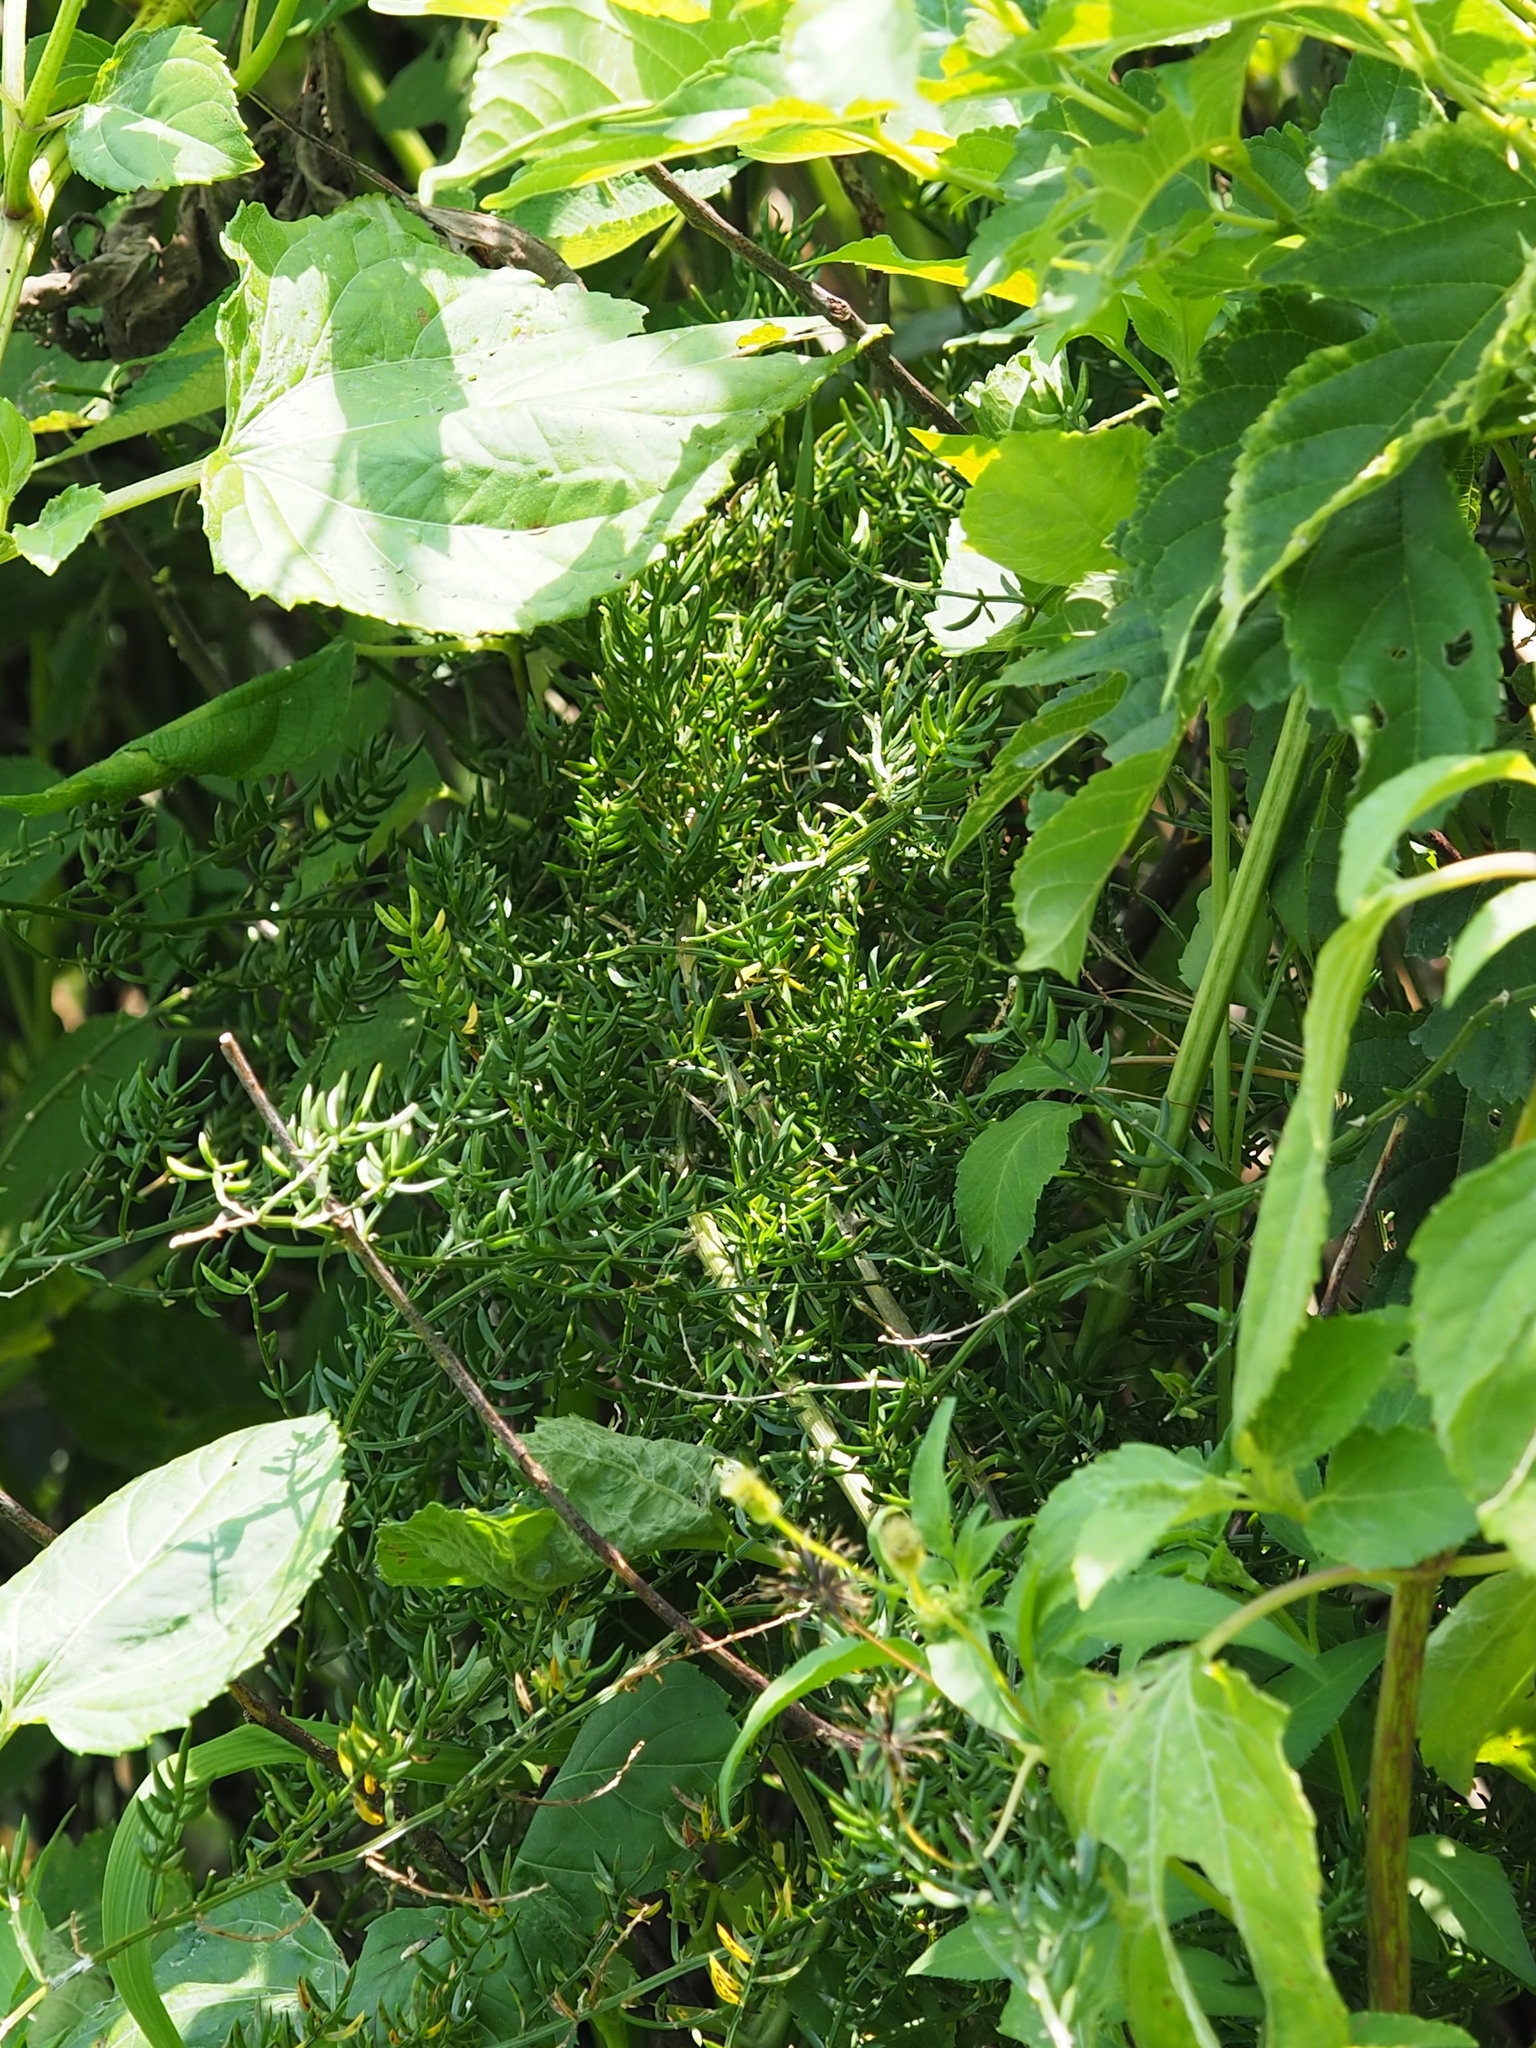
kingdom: Plantae
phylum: Tracheophyta
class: Liliopsida
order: Asparagales
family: Asparagaceae
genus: Asparagus
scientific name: Asparagus cochinchinensis
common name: Chinese asparagus
